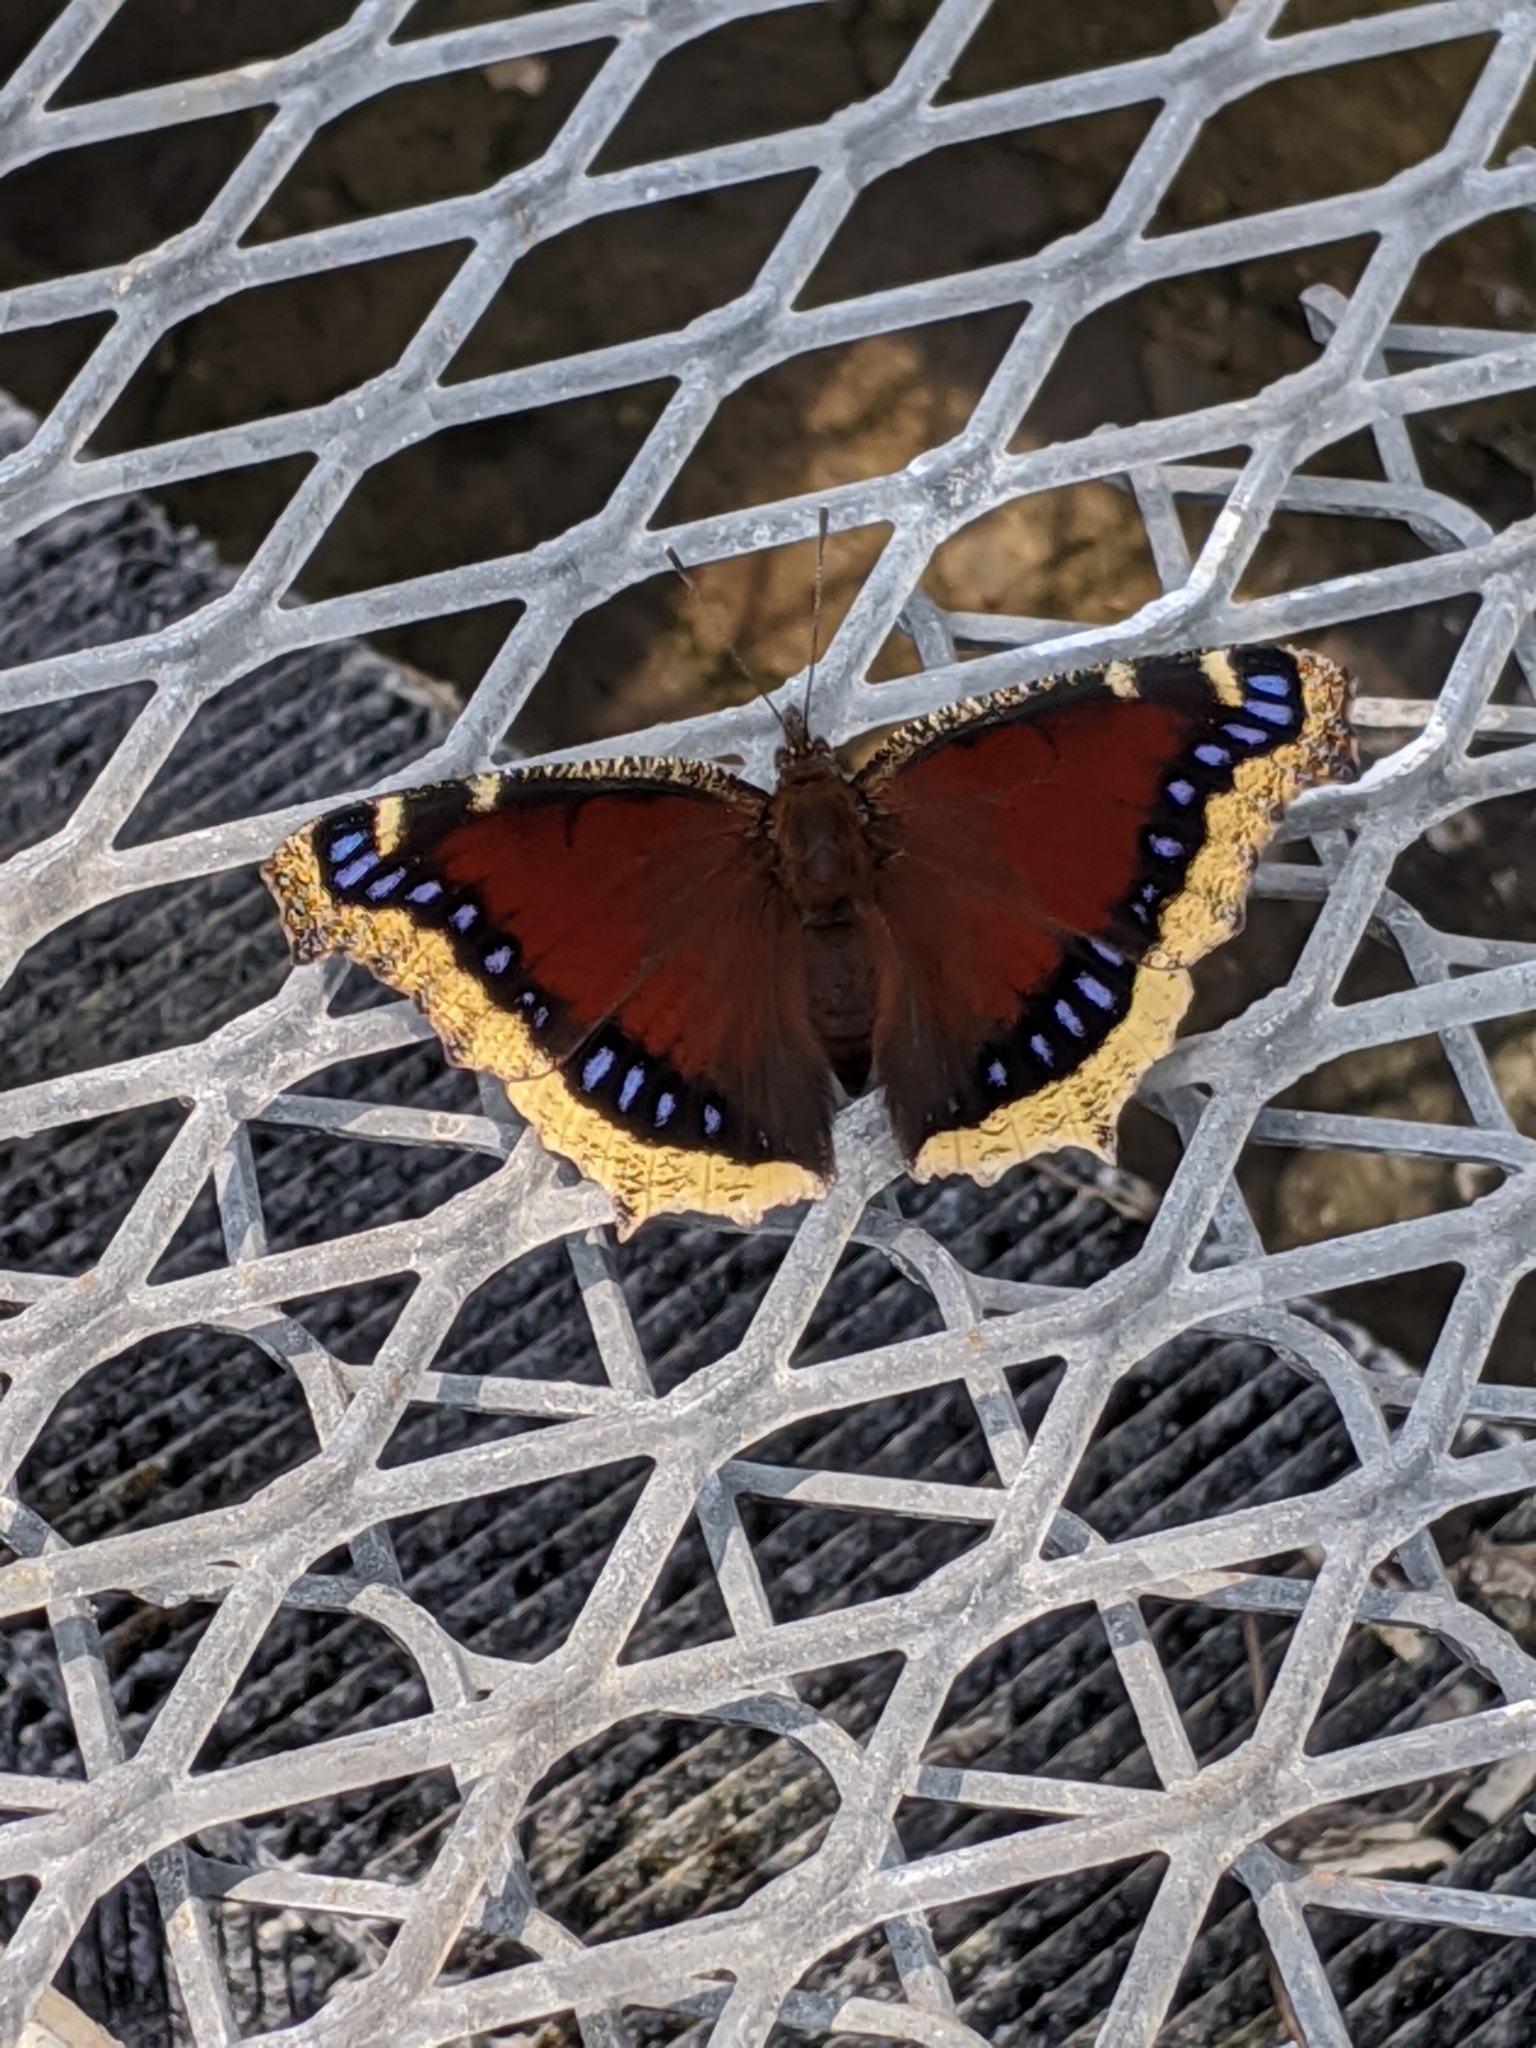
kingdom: Animalia
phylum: Arthropoda
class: Insecta
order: Lepidoptera
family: Nymphalidae
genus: Nymphalis
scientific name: Nymphalis antiopa
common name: Camberwell beauty
